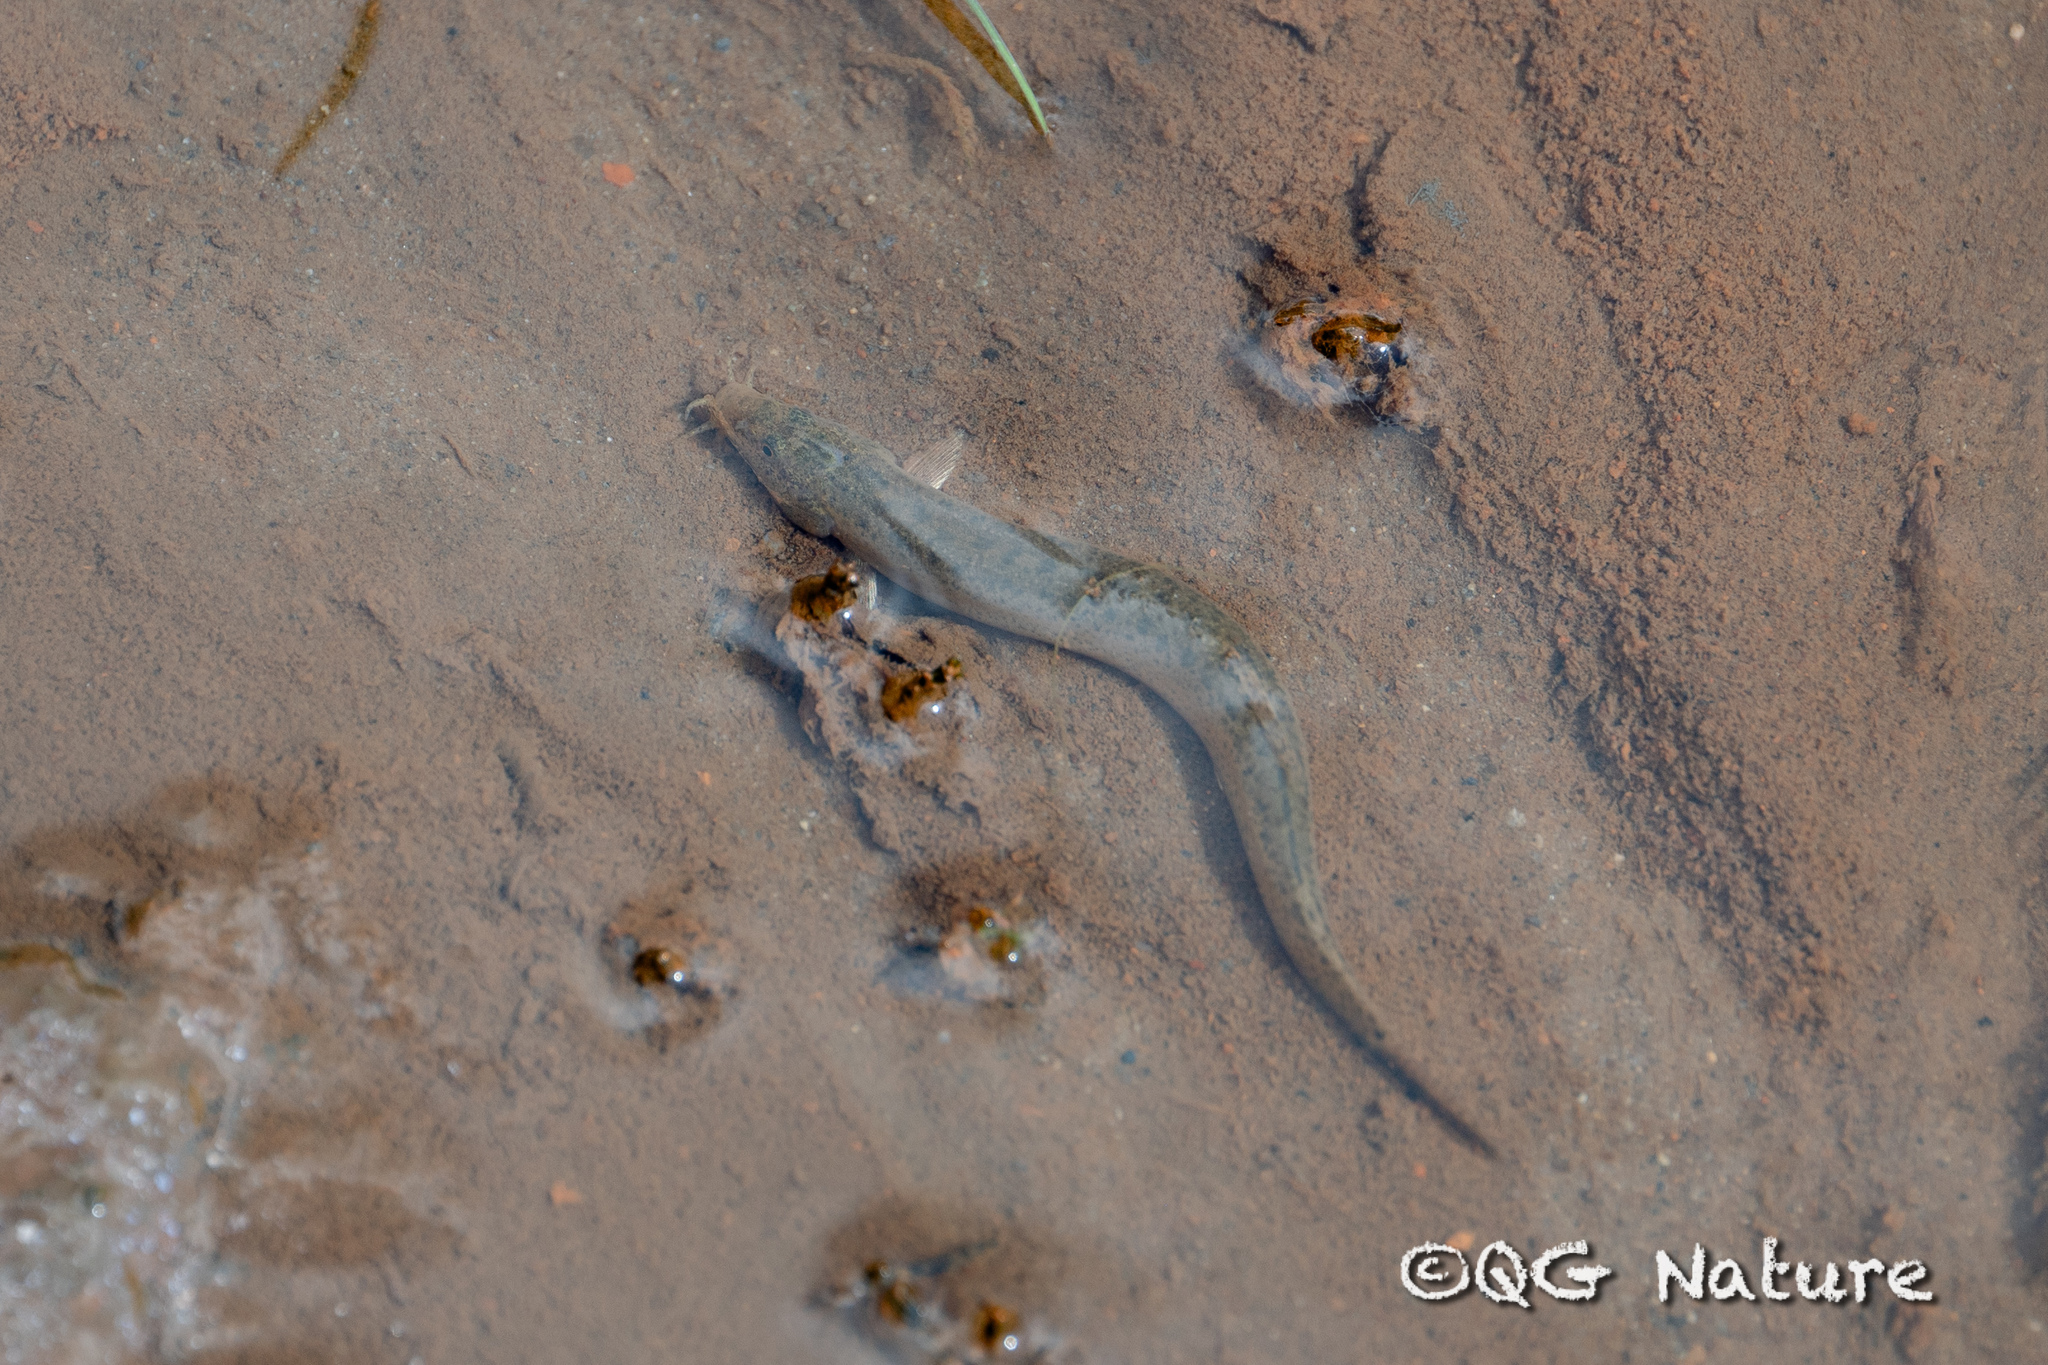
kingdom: Animalia
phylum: Chordata
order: Cypriniformes
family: Cobitidae
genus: Misgurnus
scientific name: Misgurnus anguillicaudatus
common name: Oriental weatherfish
